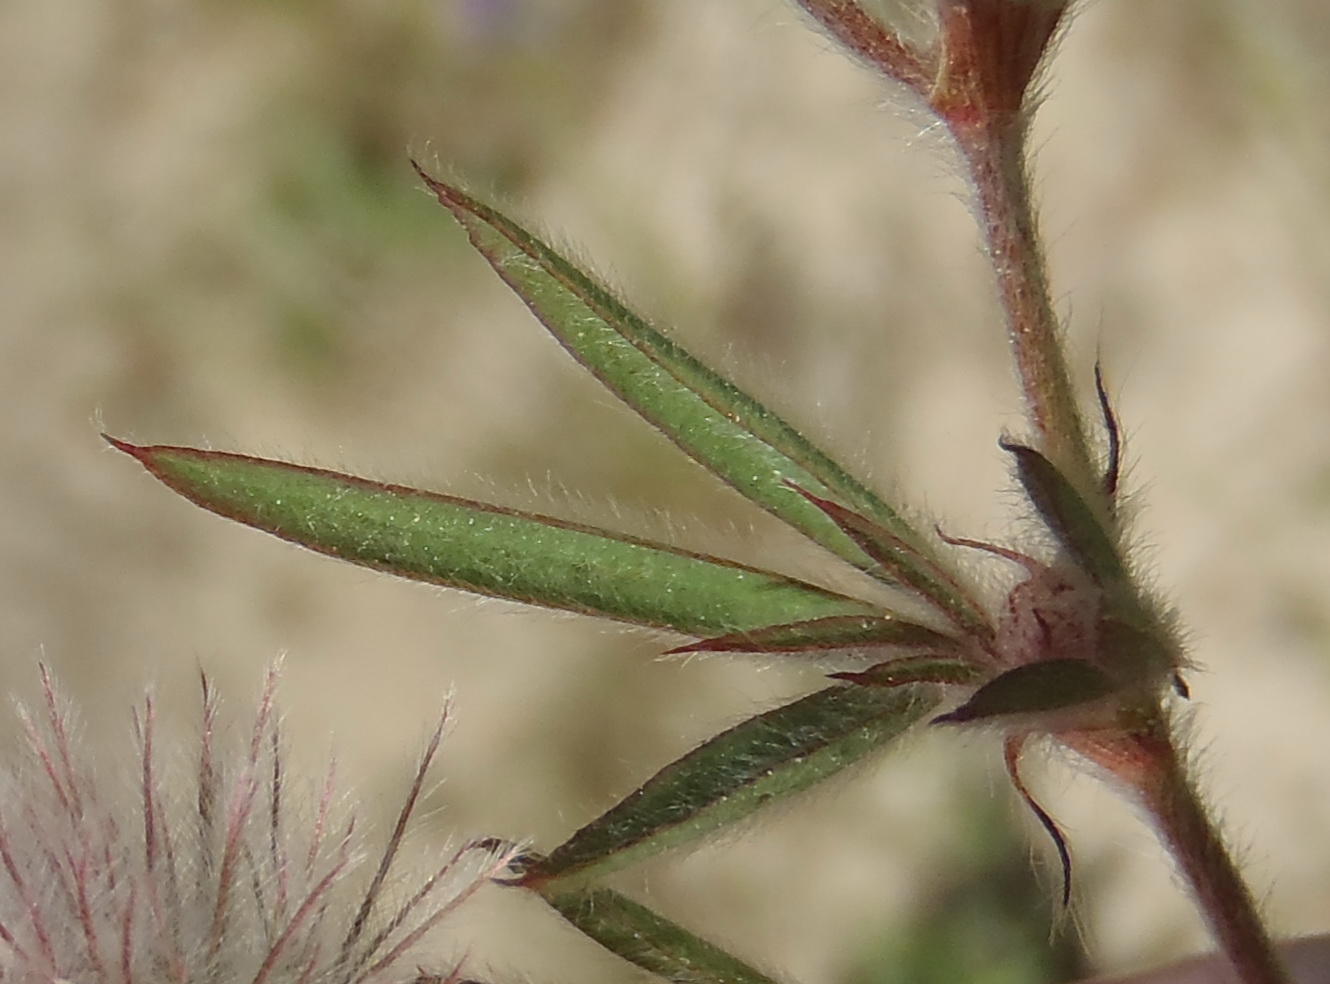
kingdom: Plantae
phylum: Tracheophyta
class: Magnoliopsida
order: Fabales
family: Fabaceae
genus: Trifolium
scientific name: Trifolium angustifolium
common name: Narrow clover
